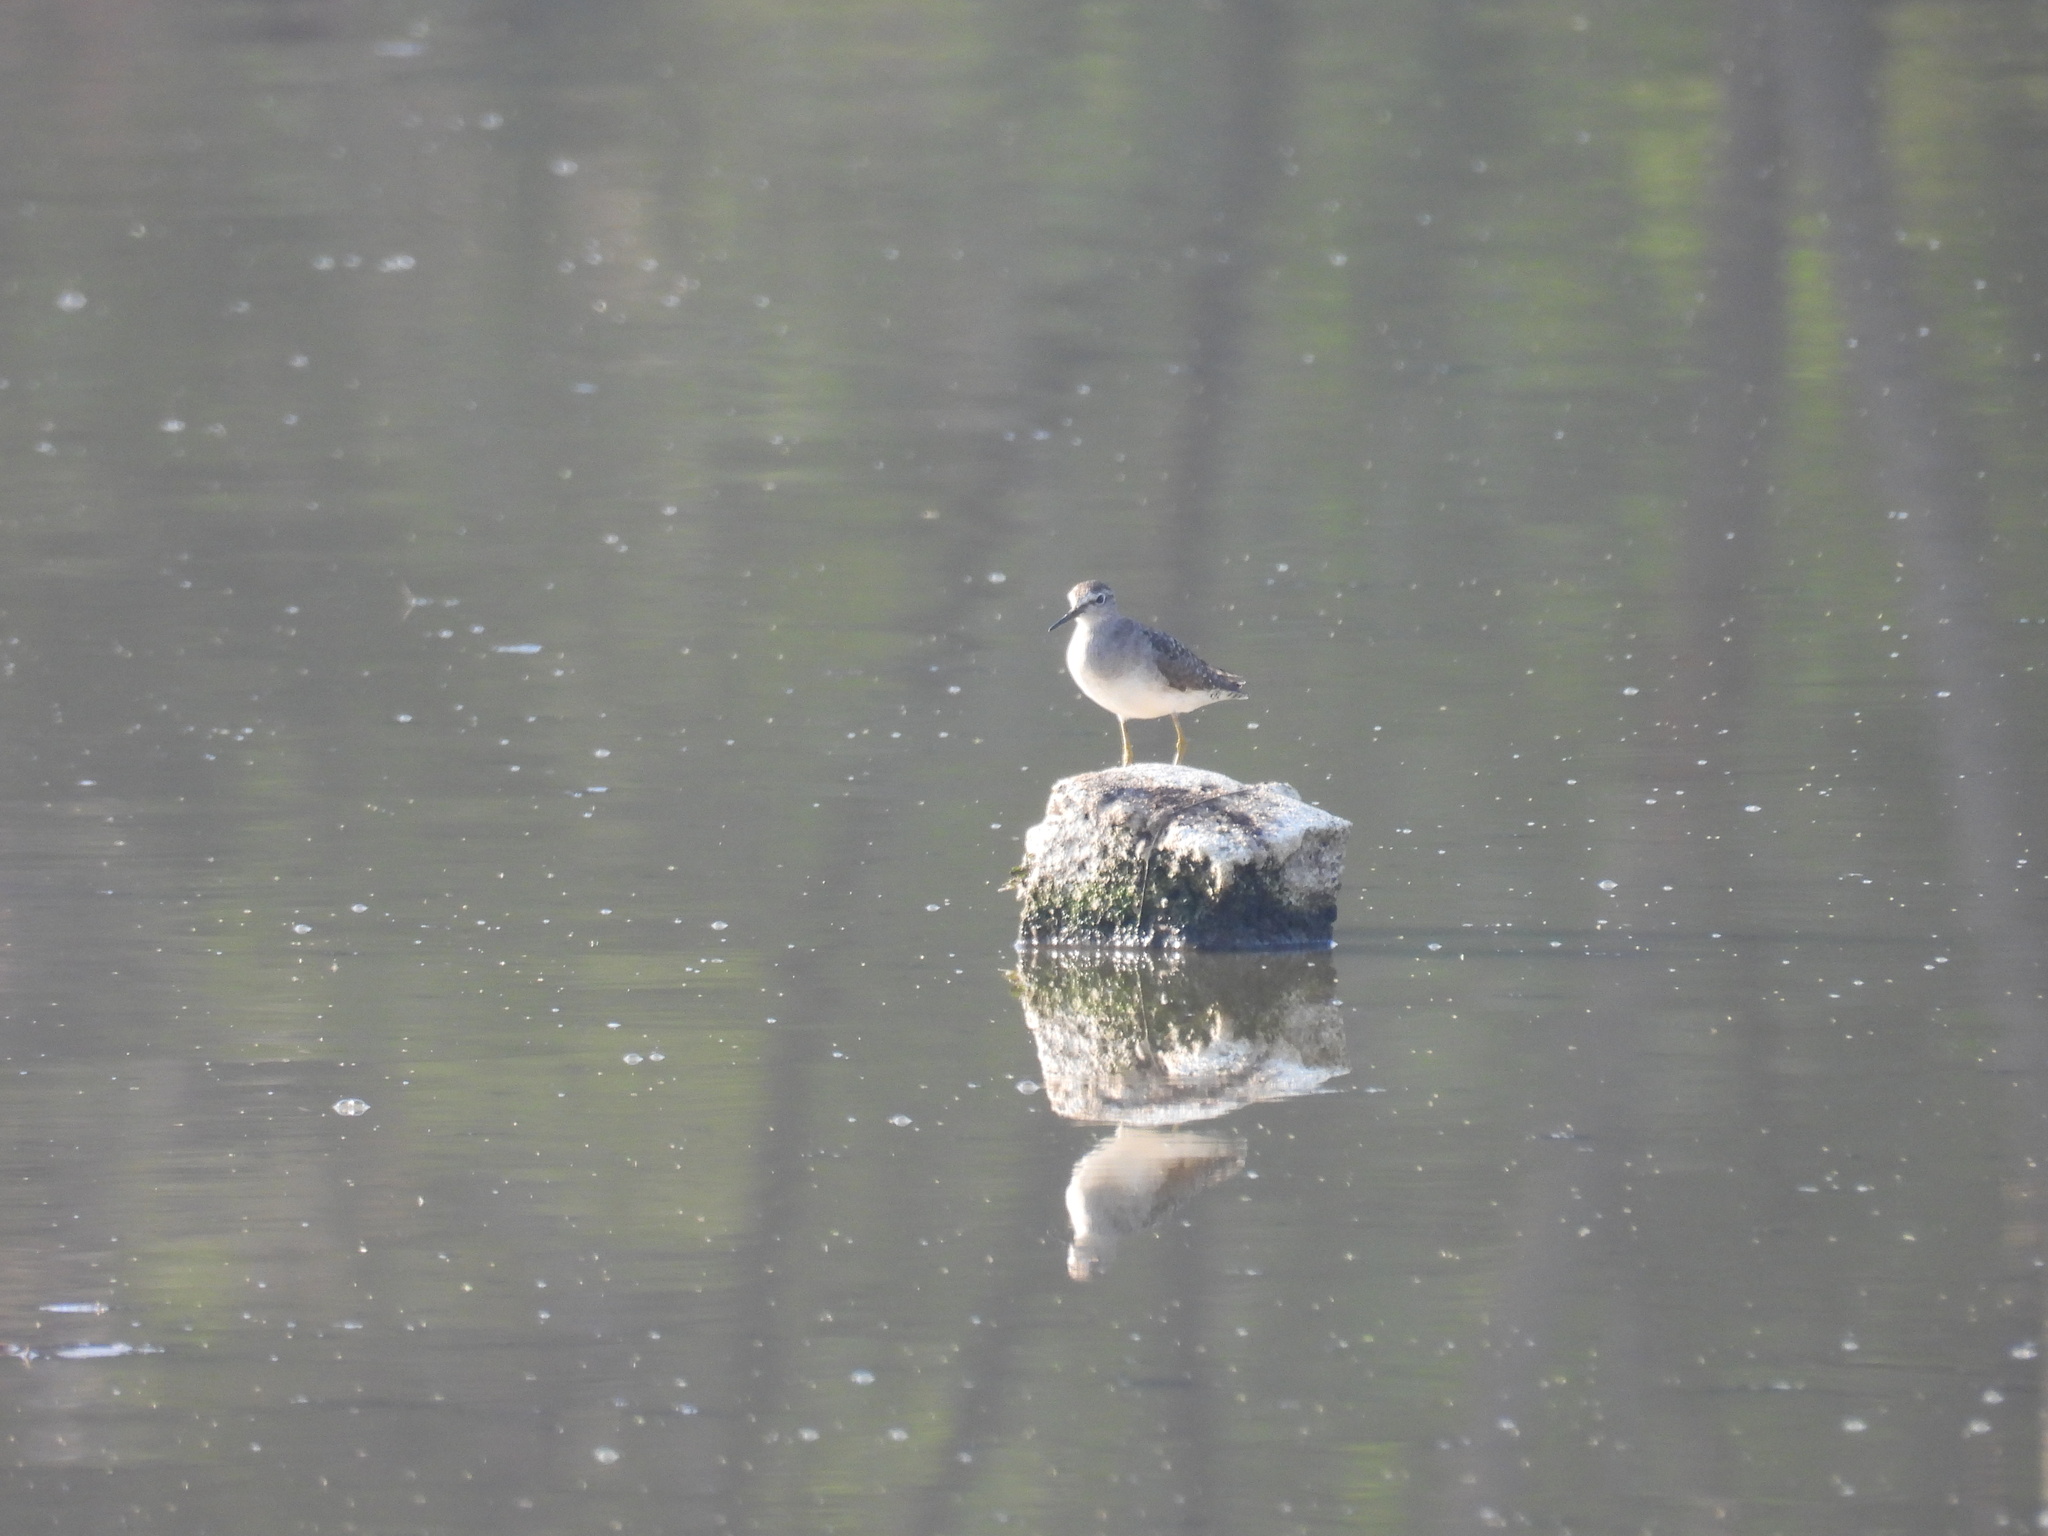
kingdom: Animalia
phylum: Chordata
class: Aves
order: Charadriiformes
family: Scolopacidae
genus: Tringa
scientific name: Tringa glareola
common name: Wood sandpiper
